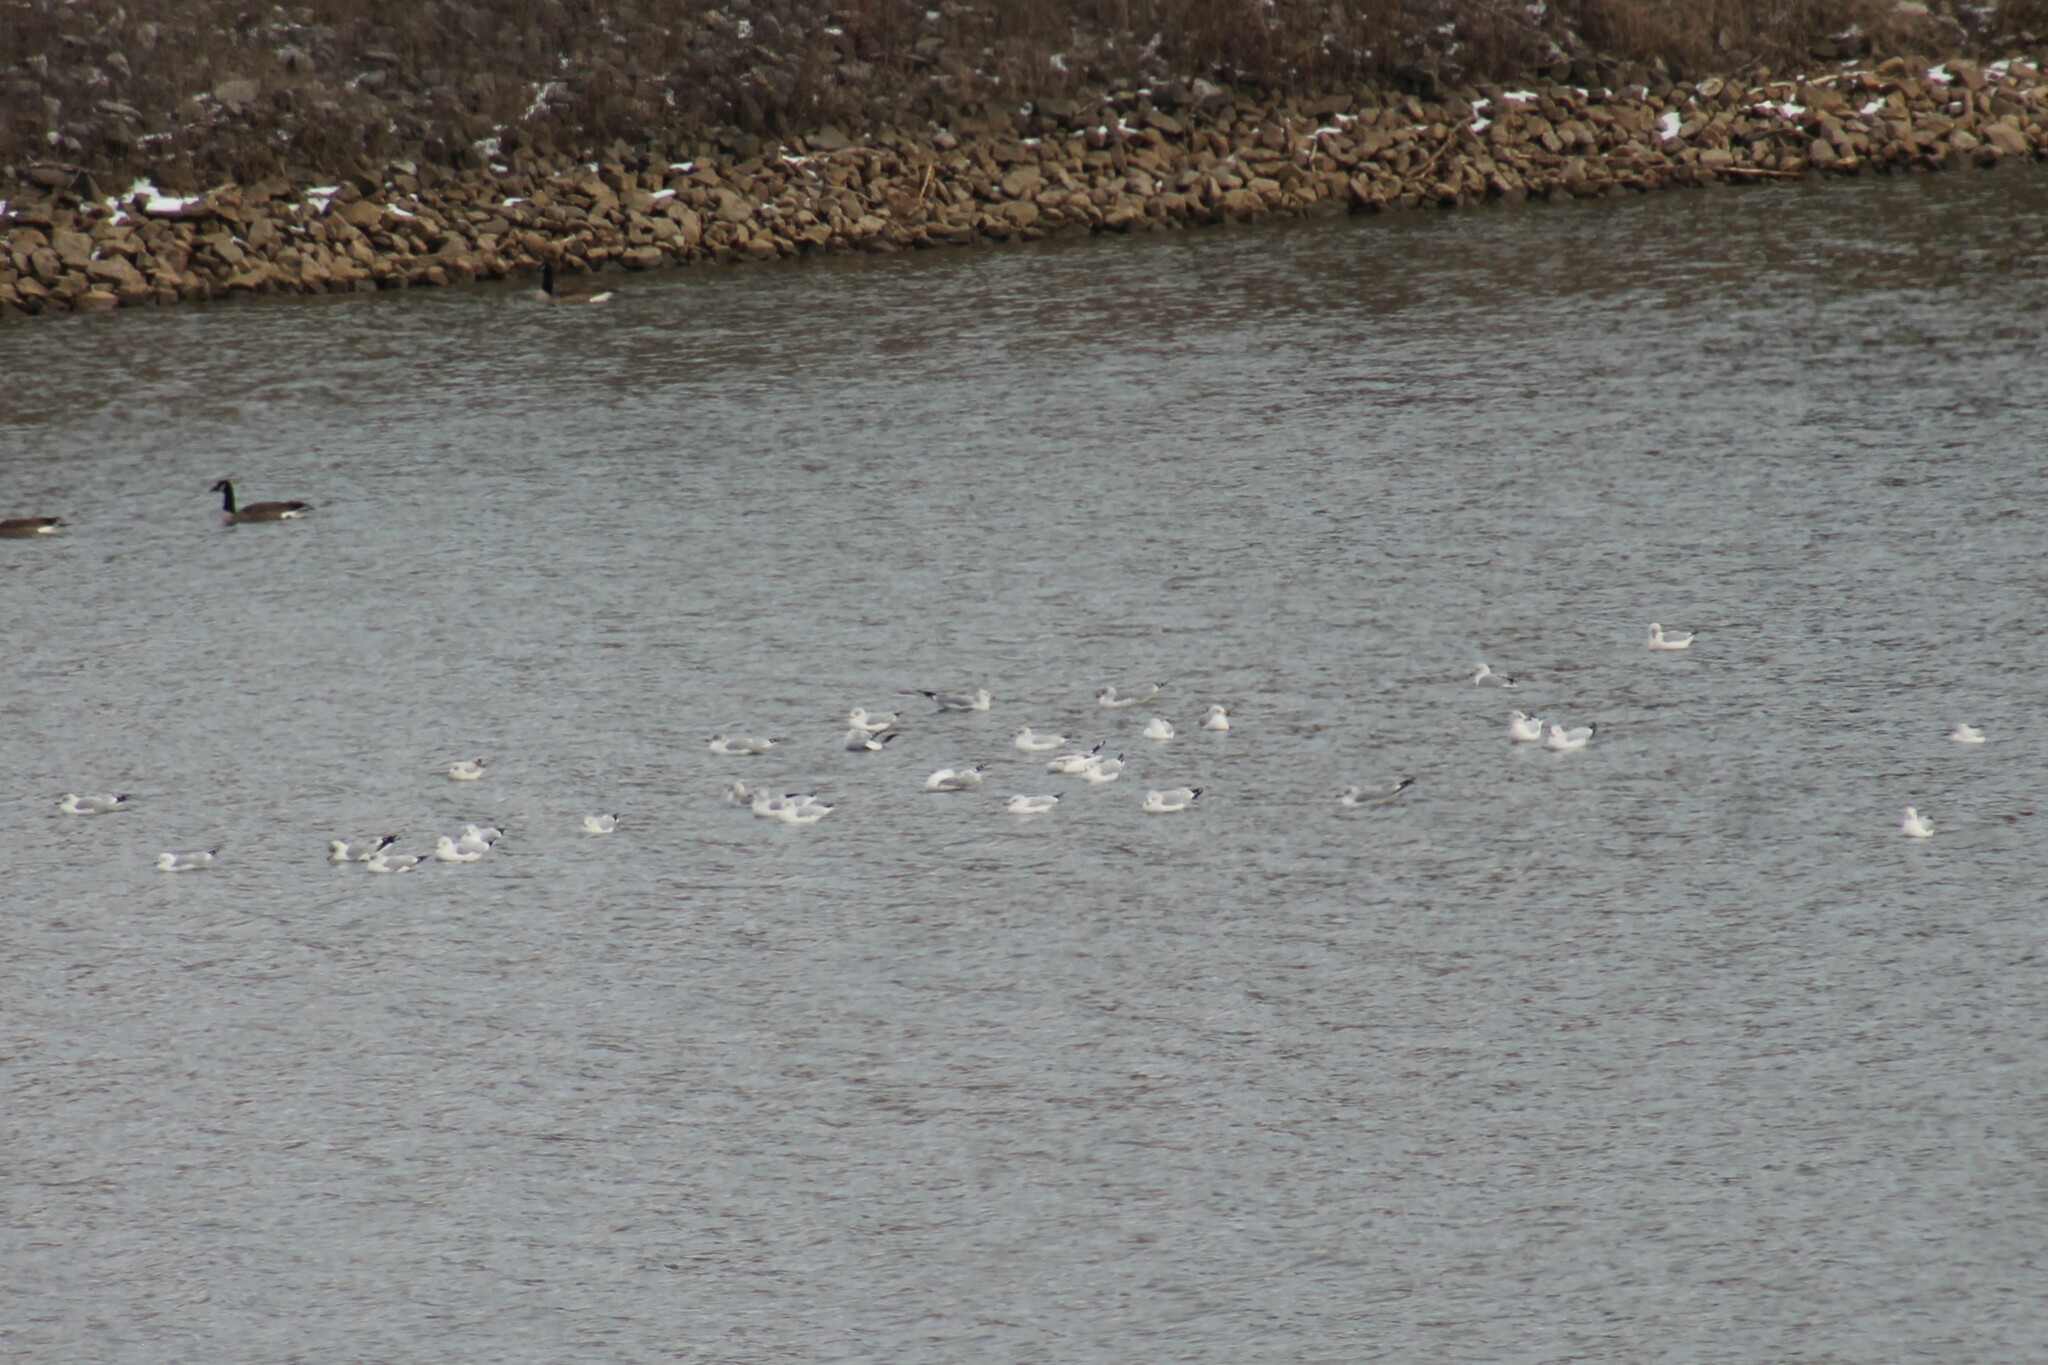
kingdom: Animalia
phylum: Chordata
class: Aves
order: Charadriiformes
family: Laridae
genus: Larus
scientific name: Larus delawarensis
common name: Ring-billed gull
